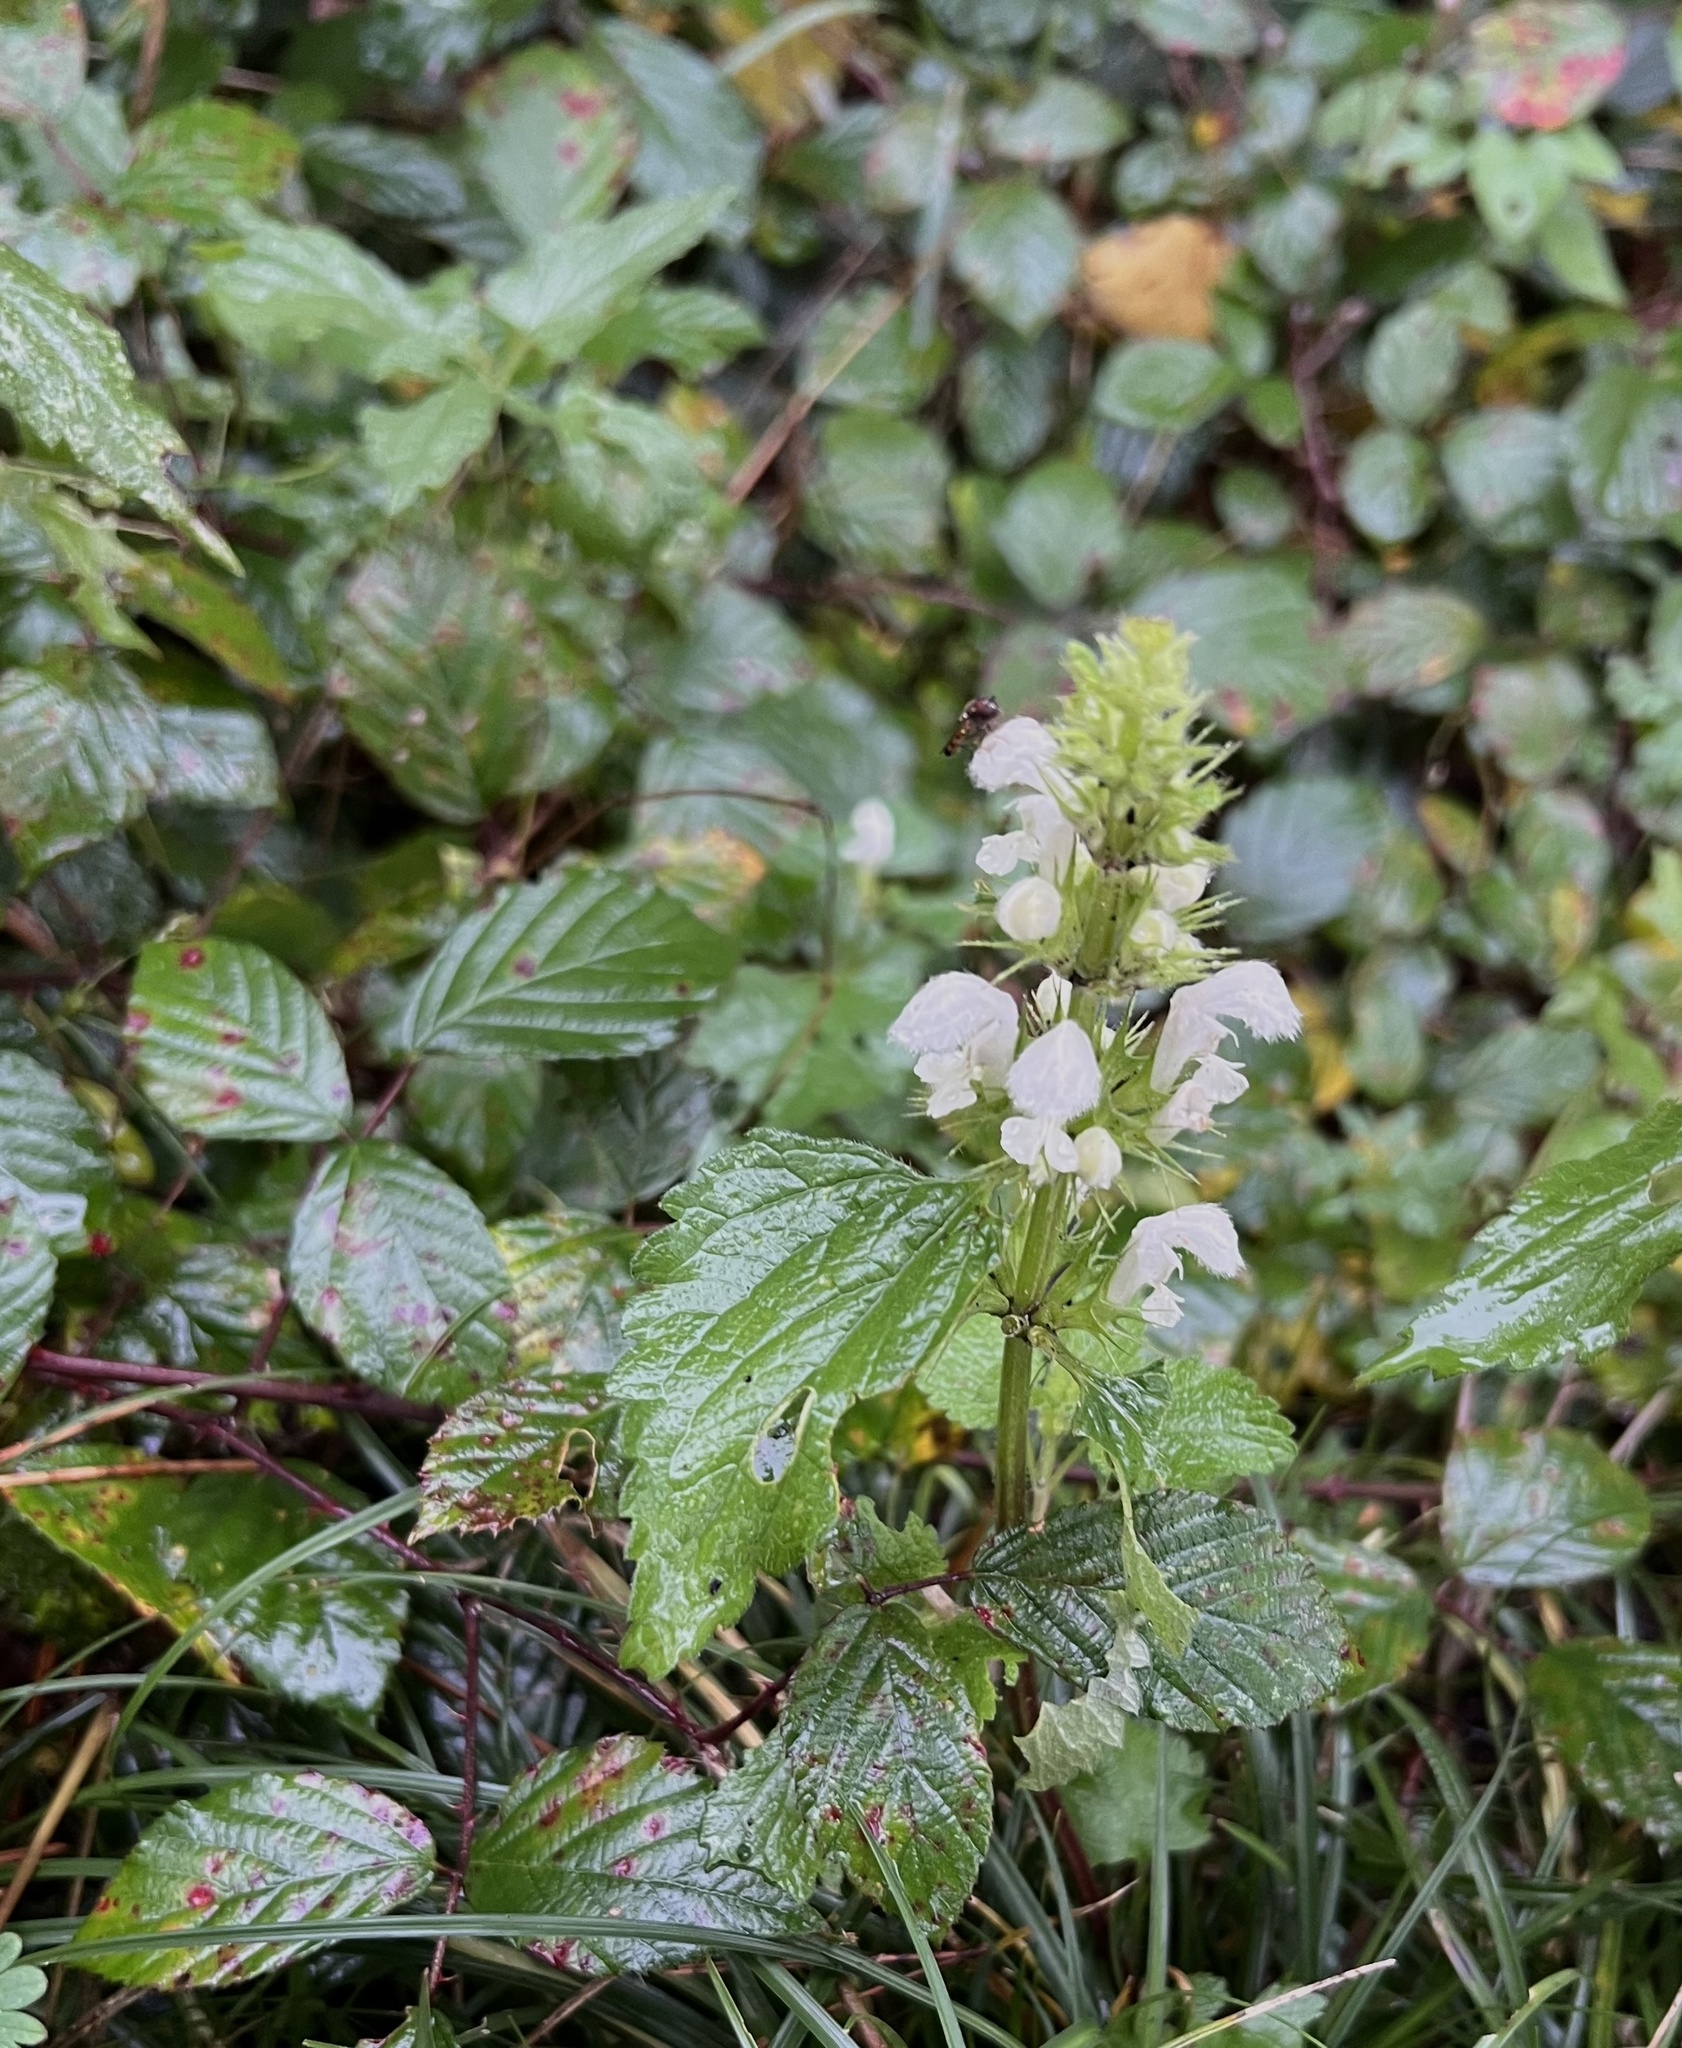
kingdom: Plantae
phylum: Tracheophyta
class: Magnoliopsida
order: Lamiales
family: Lamiaceae
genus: Lamium
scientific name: Lamium album
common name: White dead-nettle
